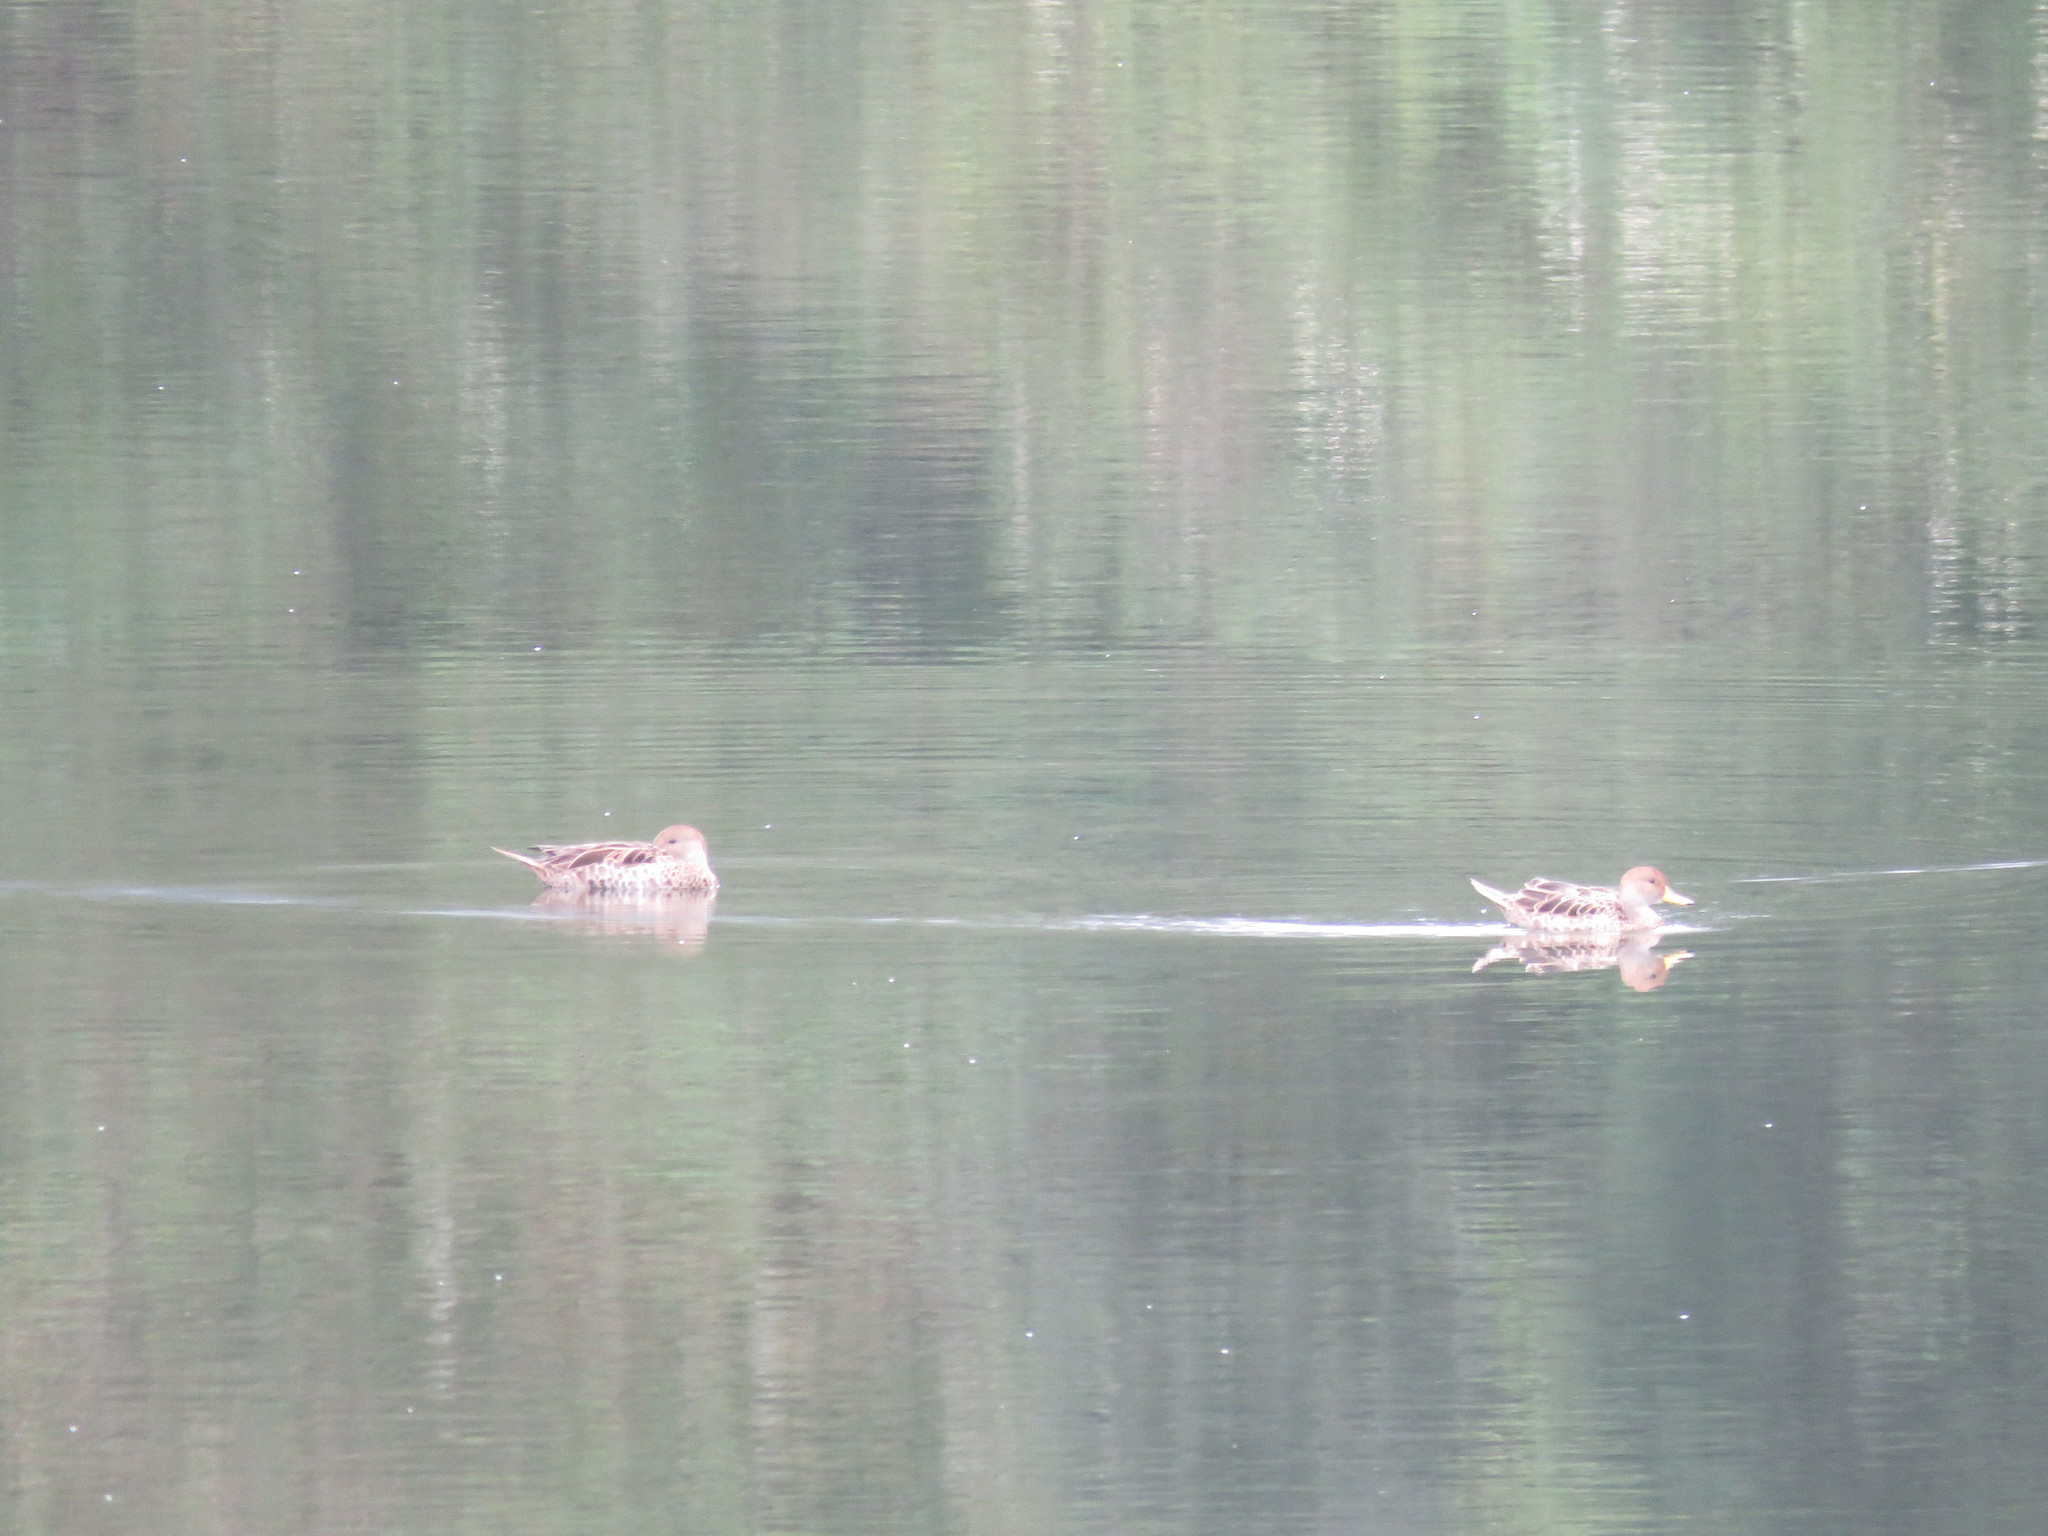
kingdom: Animalia
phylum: Chordata
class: Aves
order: Anseriformes
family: Anatidae
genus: Anas
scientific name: Anas georgica
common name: Yellow-billed pintail
